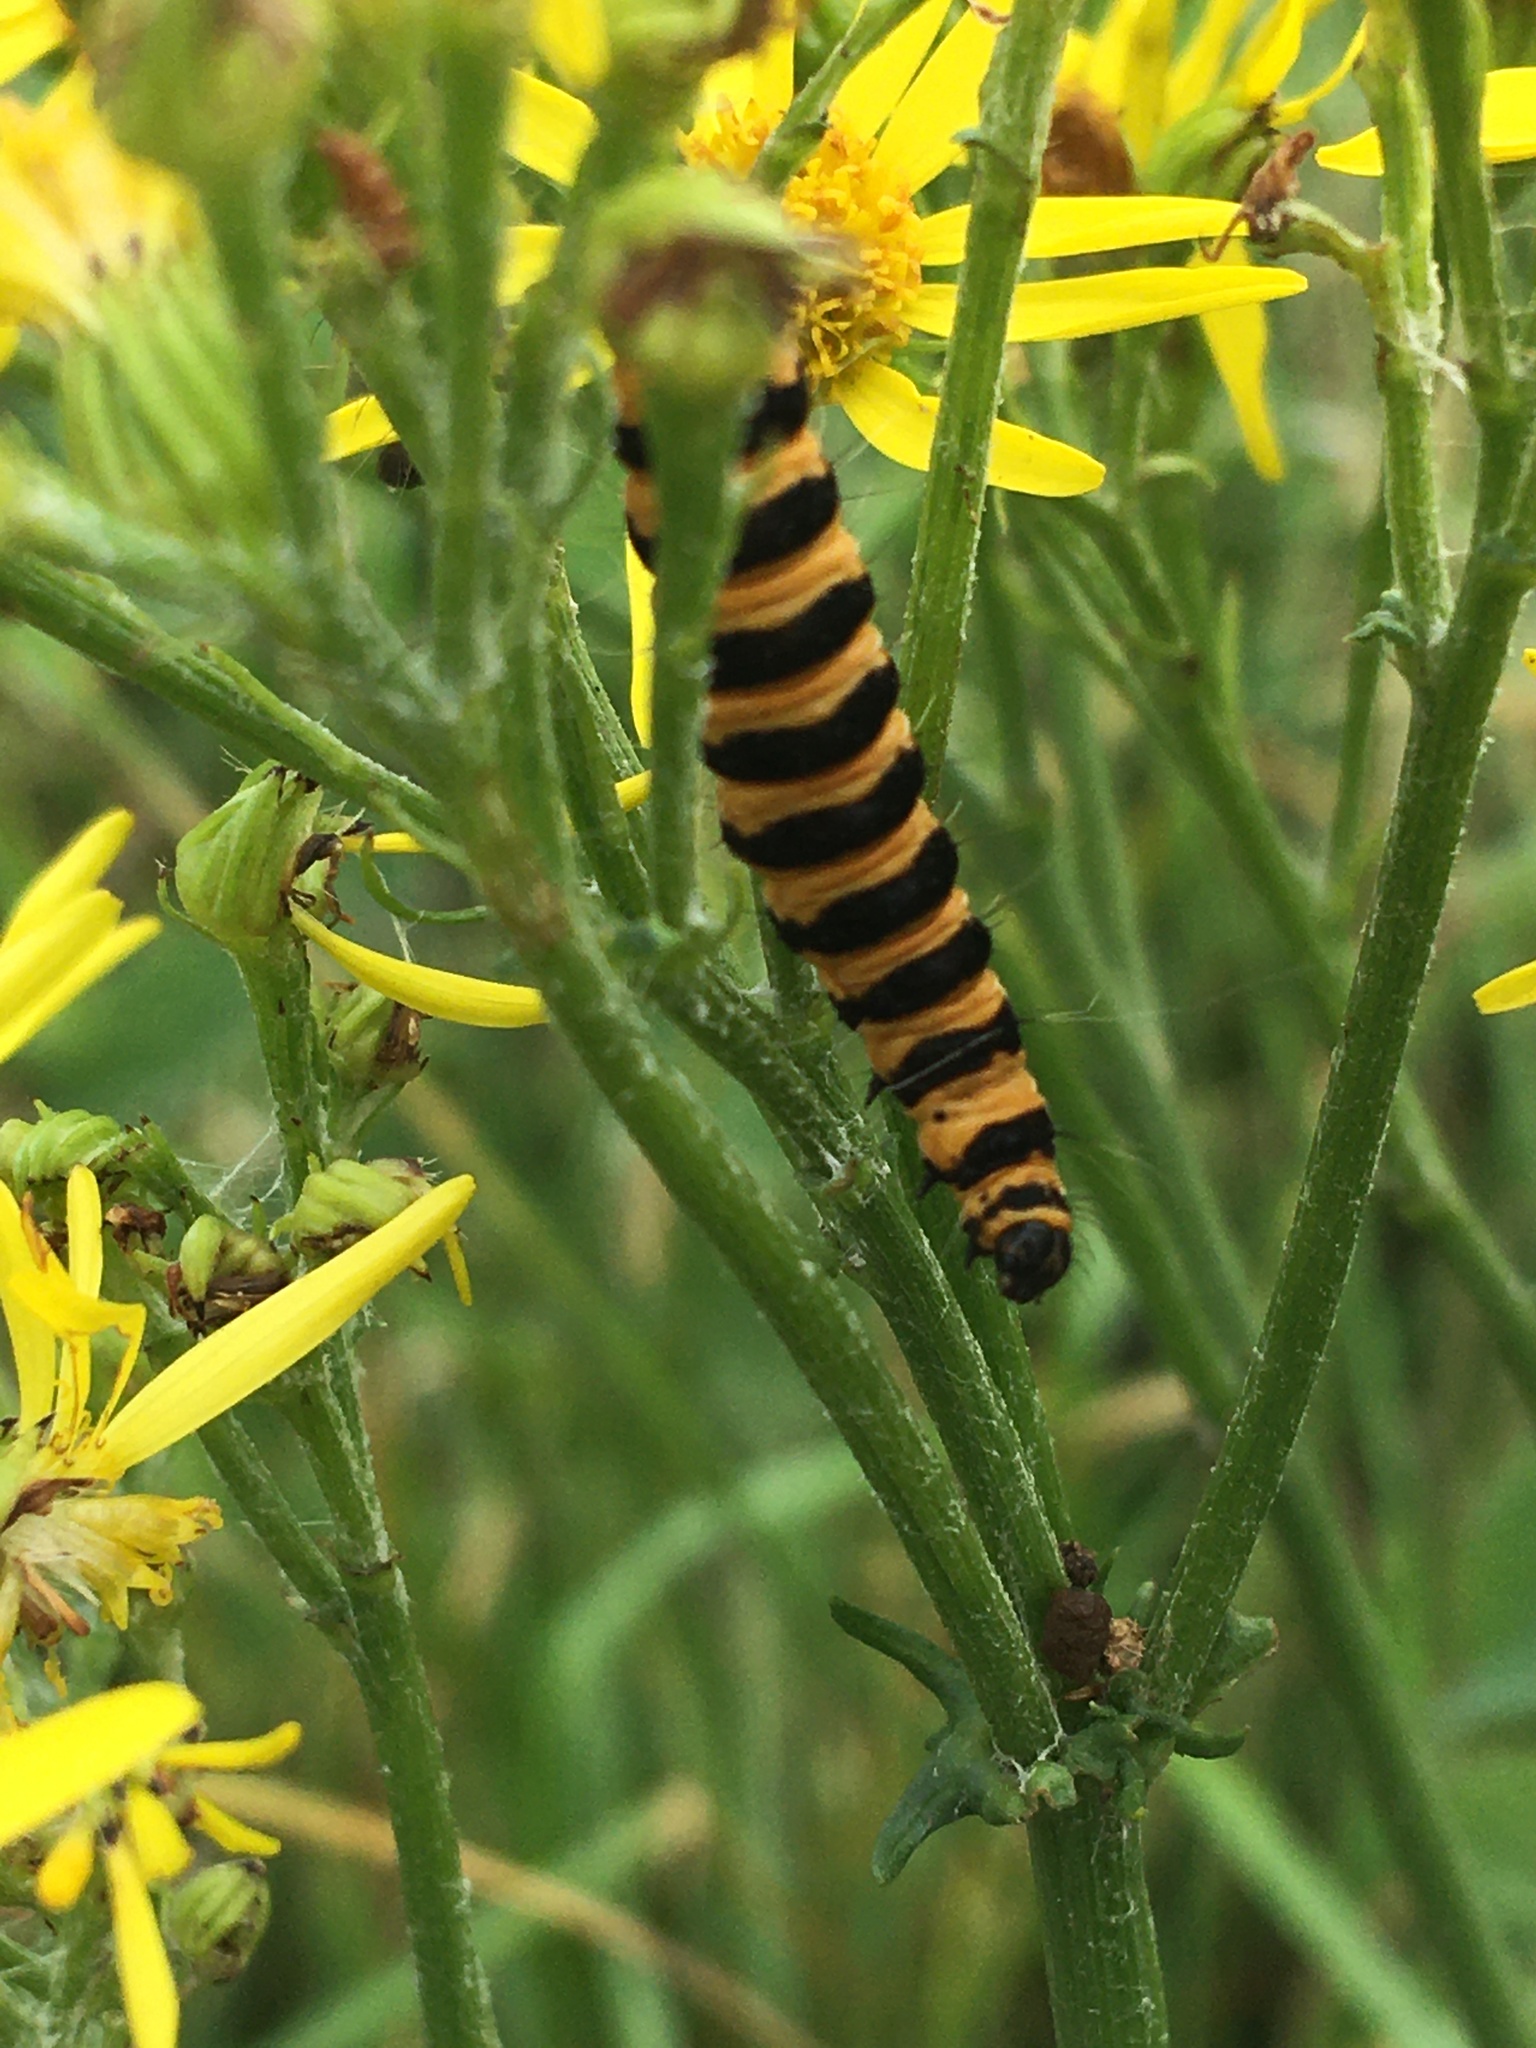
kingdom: Animalia
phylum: Arthropoda
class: Insecta
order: Lepidoptera
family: Erebidae
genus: Tyria
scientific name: Tyria jacobaeae
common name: Cinnabar
